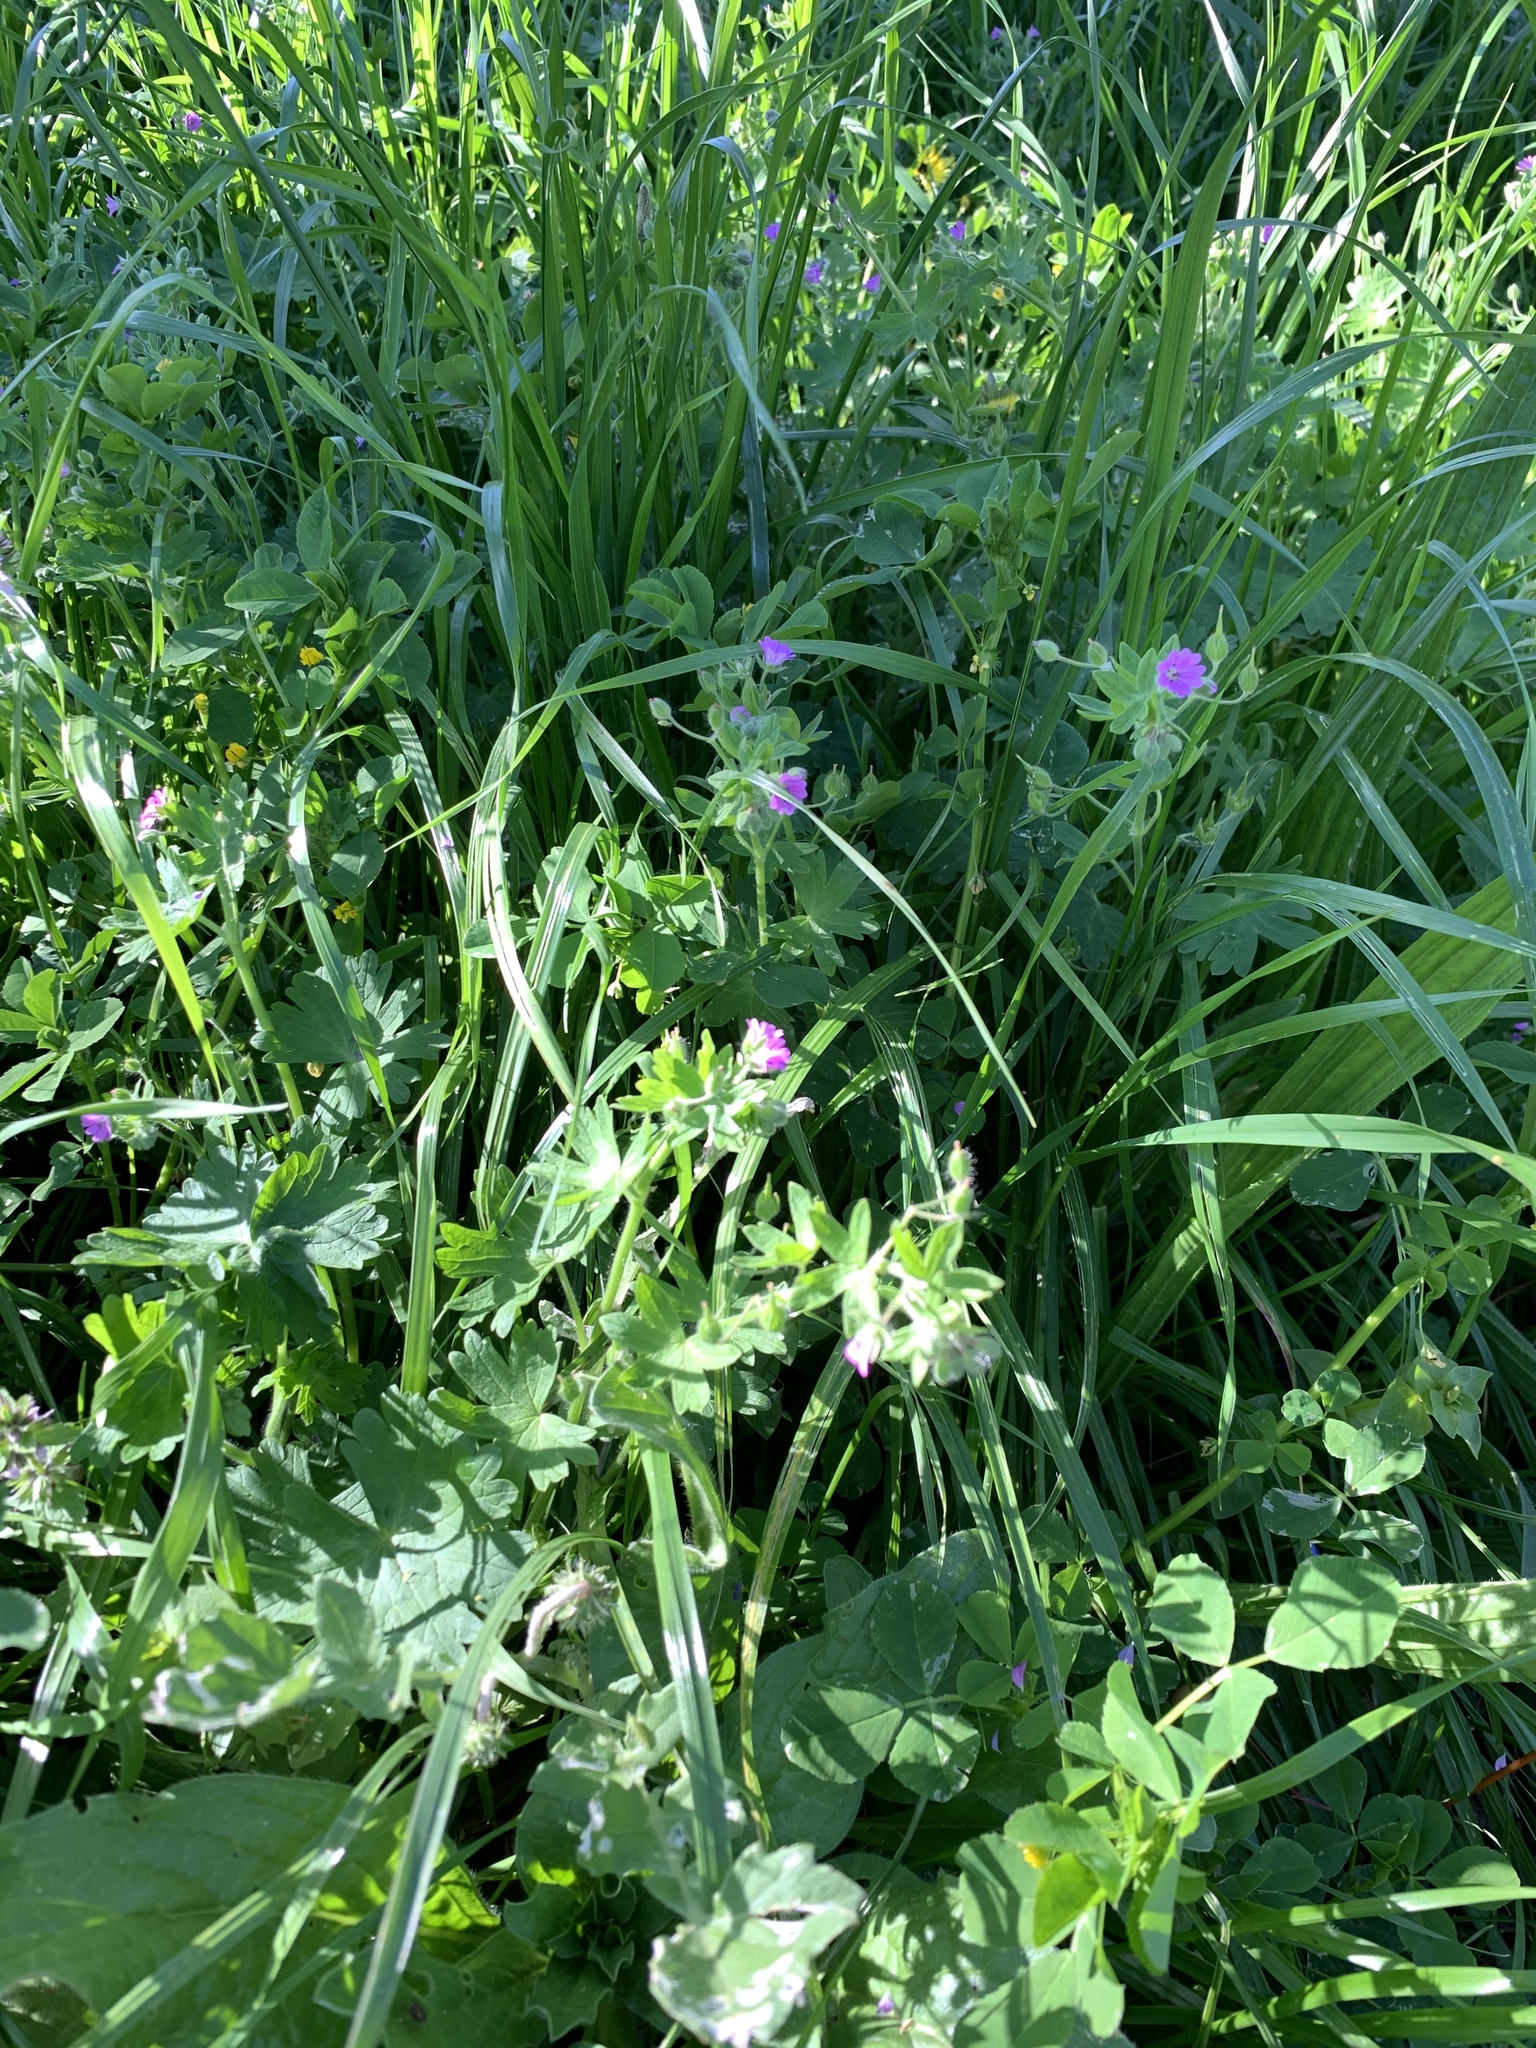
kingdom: Plantae
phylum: Tracheophyta
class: Magnoliopsida
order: Geraniales
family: Geraniaceae
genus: Geranium
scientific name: Geranium molle
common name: Dove's-foot crane's-bill
